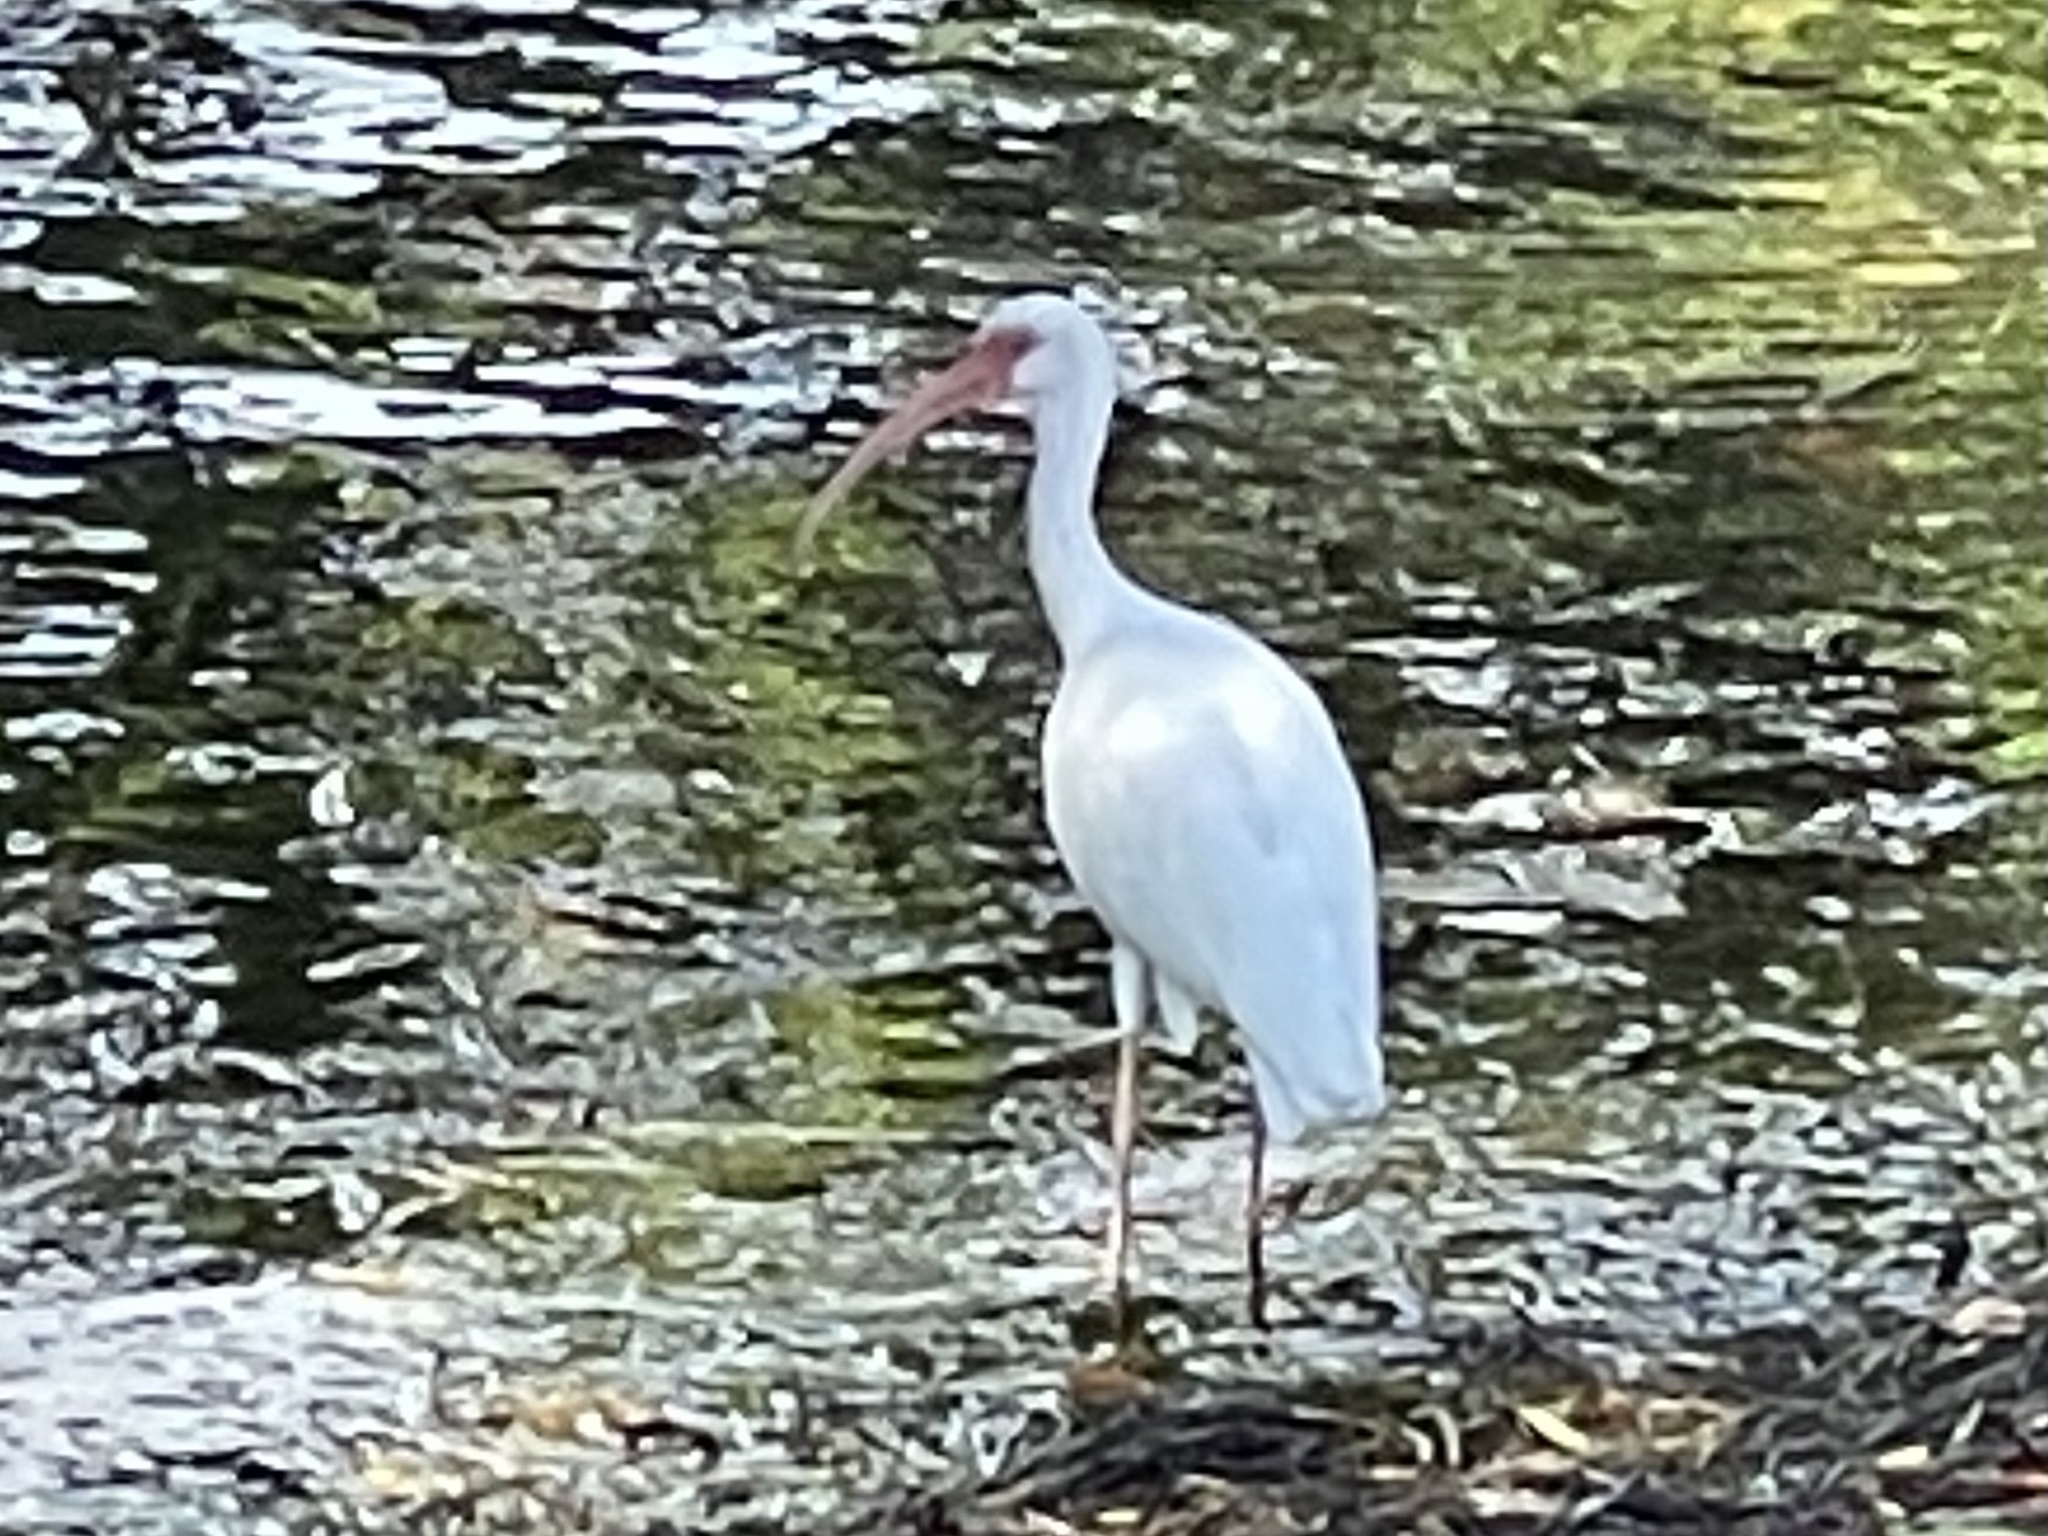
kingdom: Animalia
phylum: Chordata
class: Aves
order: Pelecaniformes
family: Threskiornithidae
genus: Eudocimus
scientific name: Eudocimus albus
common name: White ibis
